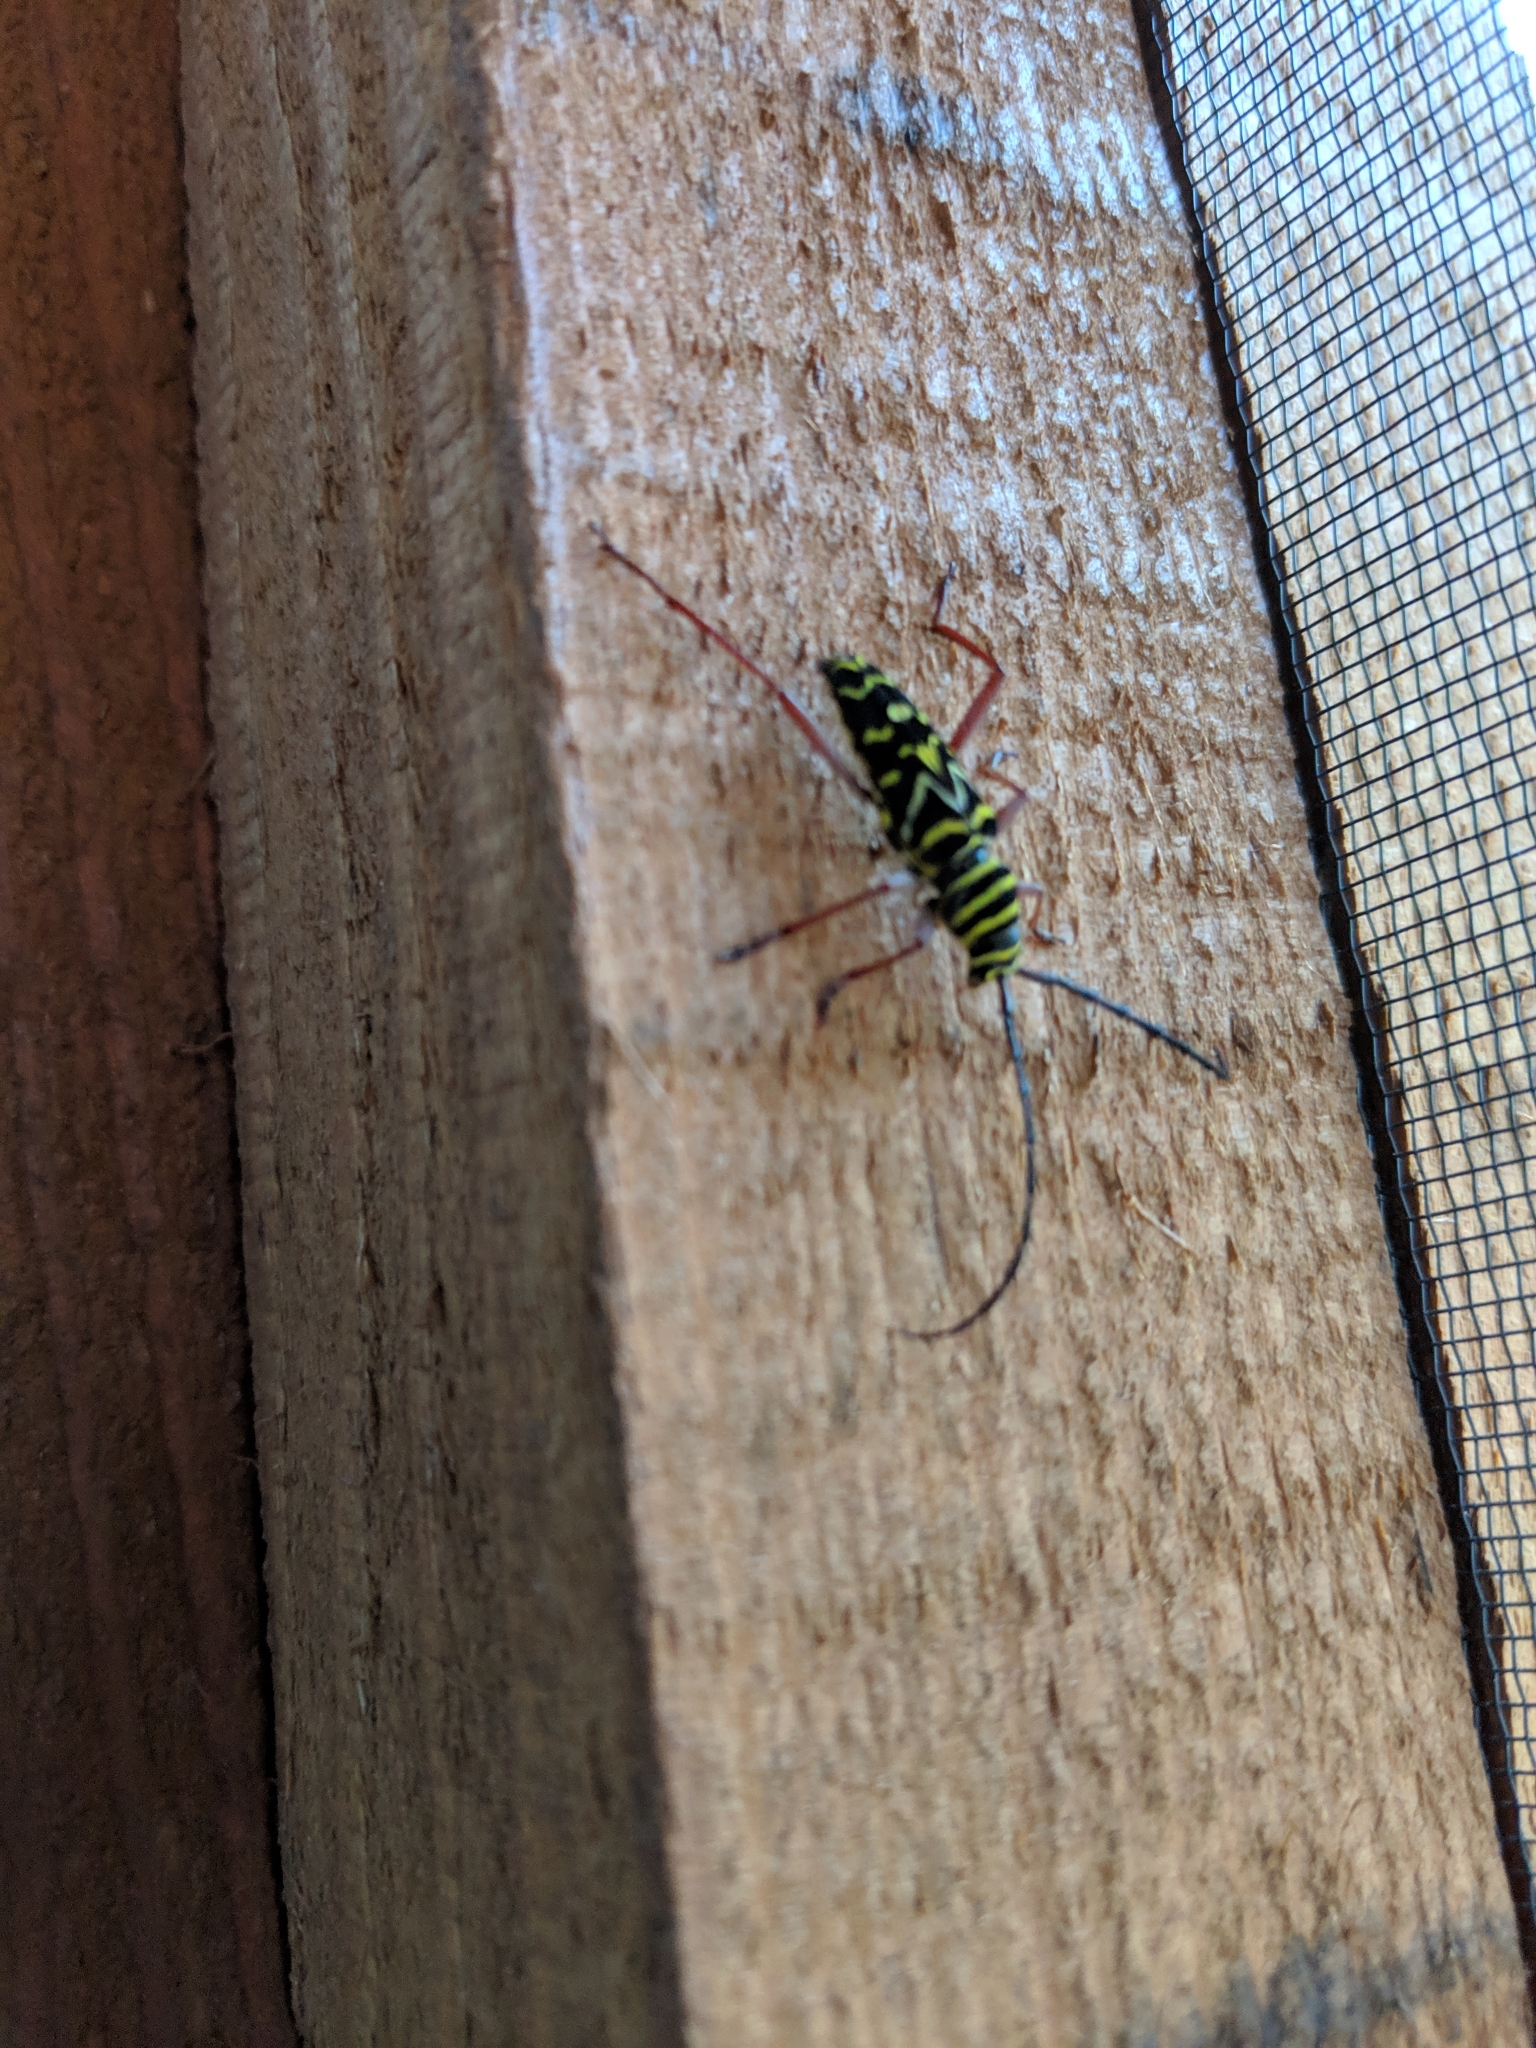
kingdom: Animalia
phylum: Arthropoda
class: Insecta
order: Coleoptera
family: Cerambycidae
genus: Megacyllene
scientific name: Megacyllene caryae
